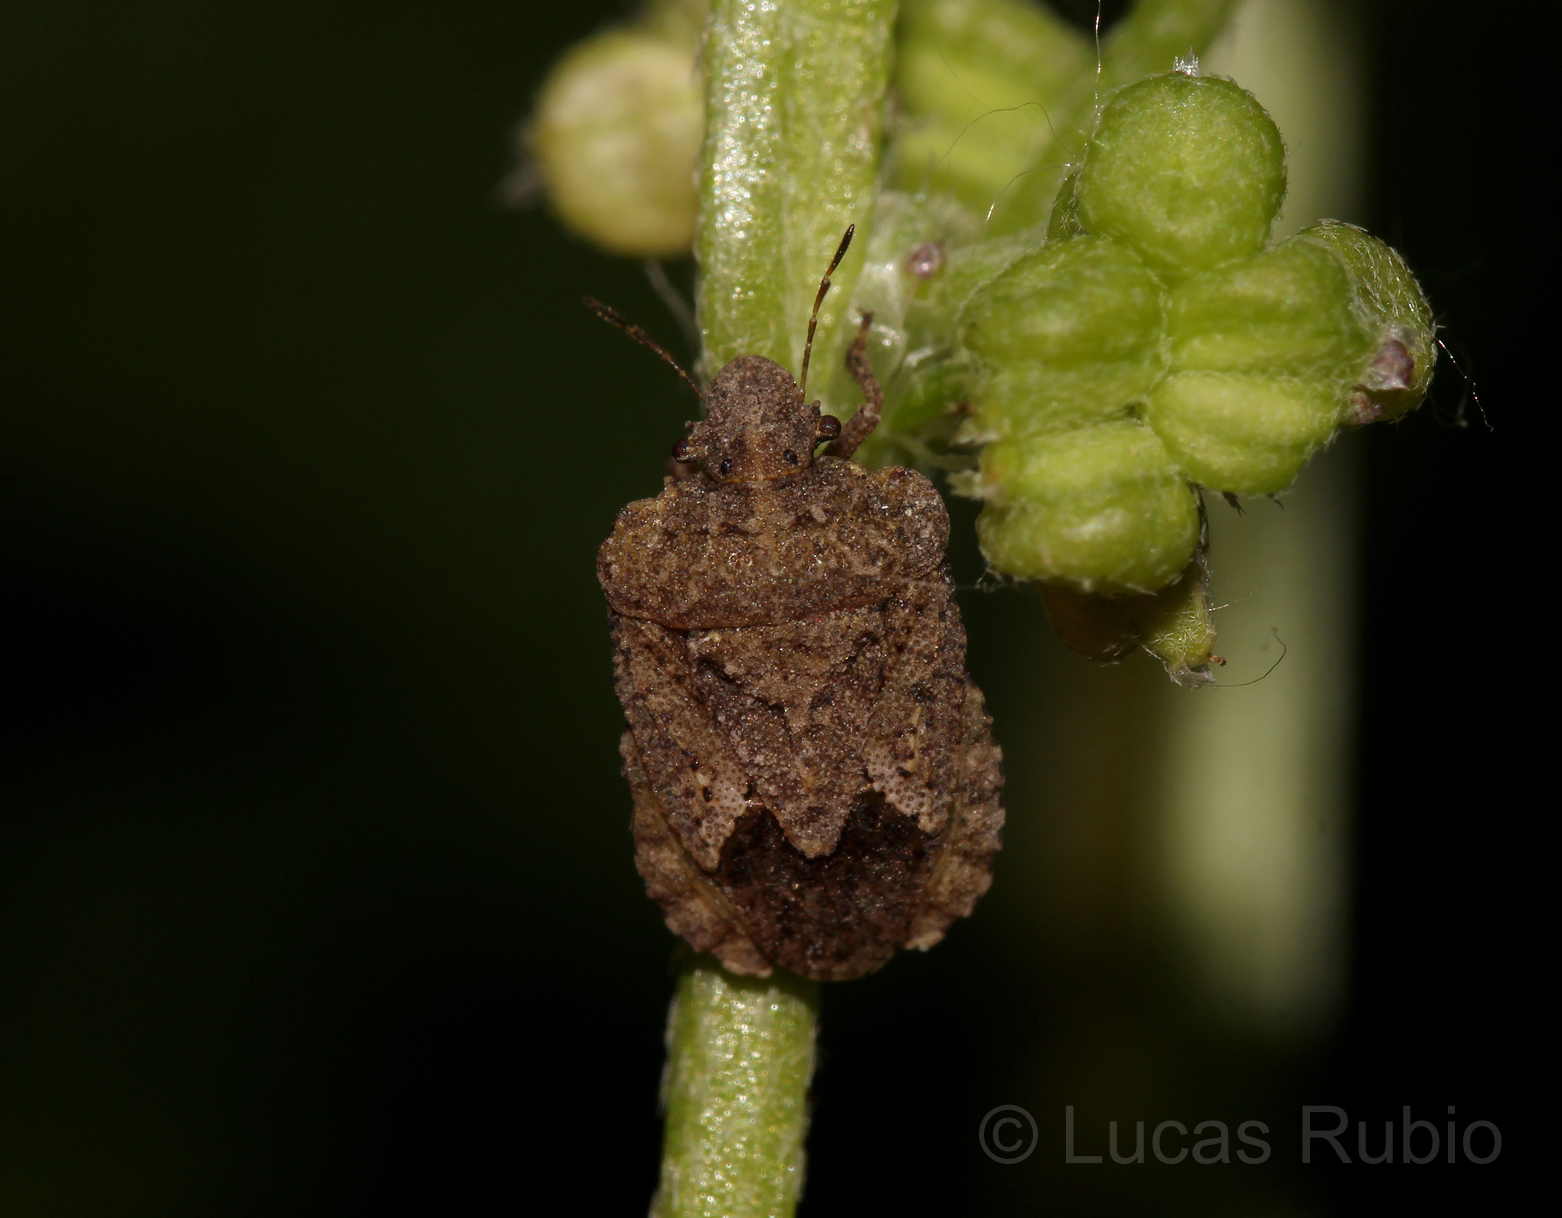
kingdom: Animalia
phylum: Arthropoda
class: Insecta
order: Hemiptera
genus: Neoleprosoma
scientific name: Neoleprosoma
